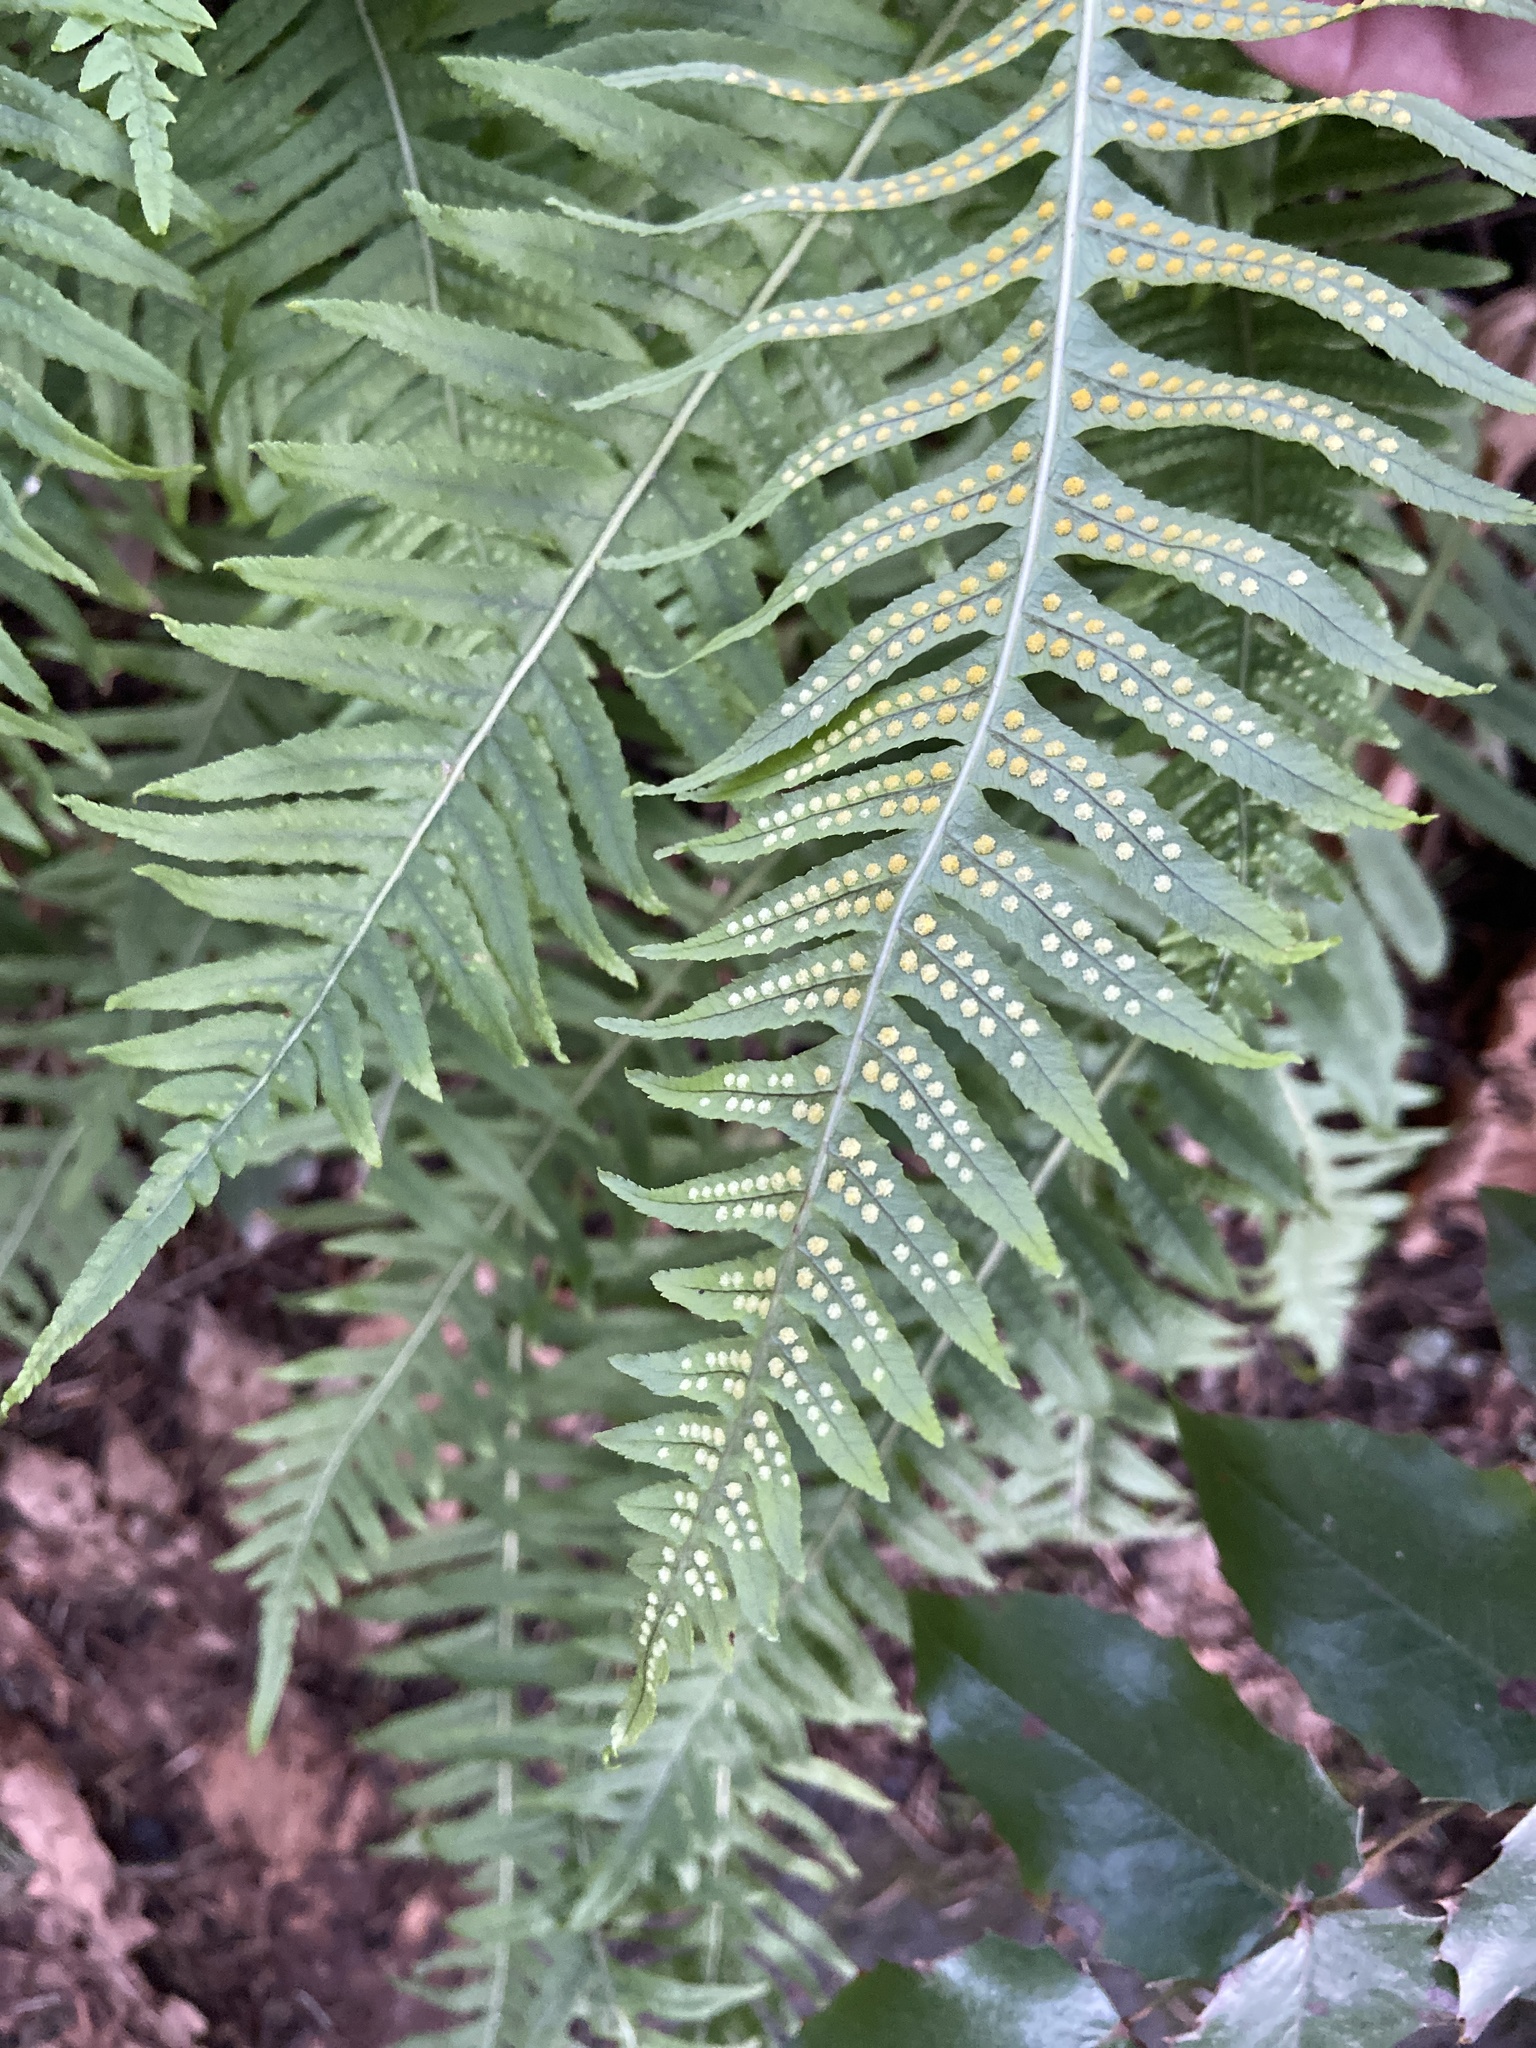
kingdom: Plantae
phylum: Tracheophyta
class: Polypodiopsida
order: Polypodiales
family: Polypodiaceae
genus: Polypodium
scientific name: Polypodium glycyrrhiza
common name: Licorice fern
